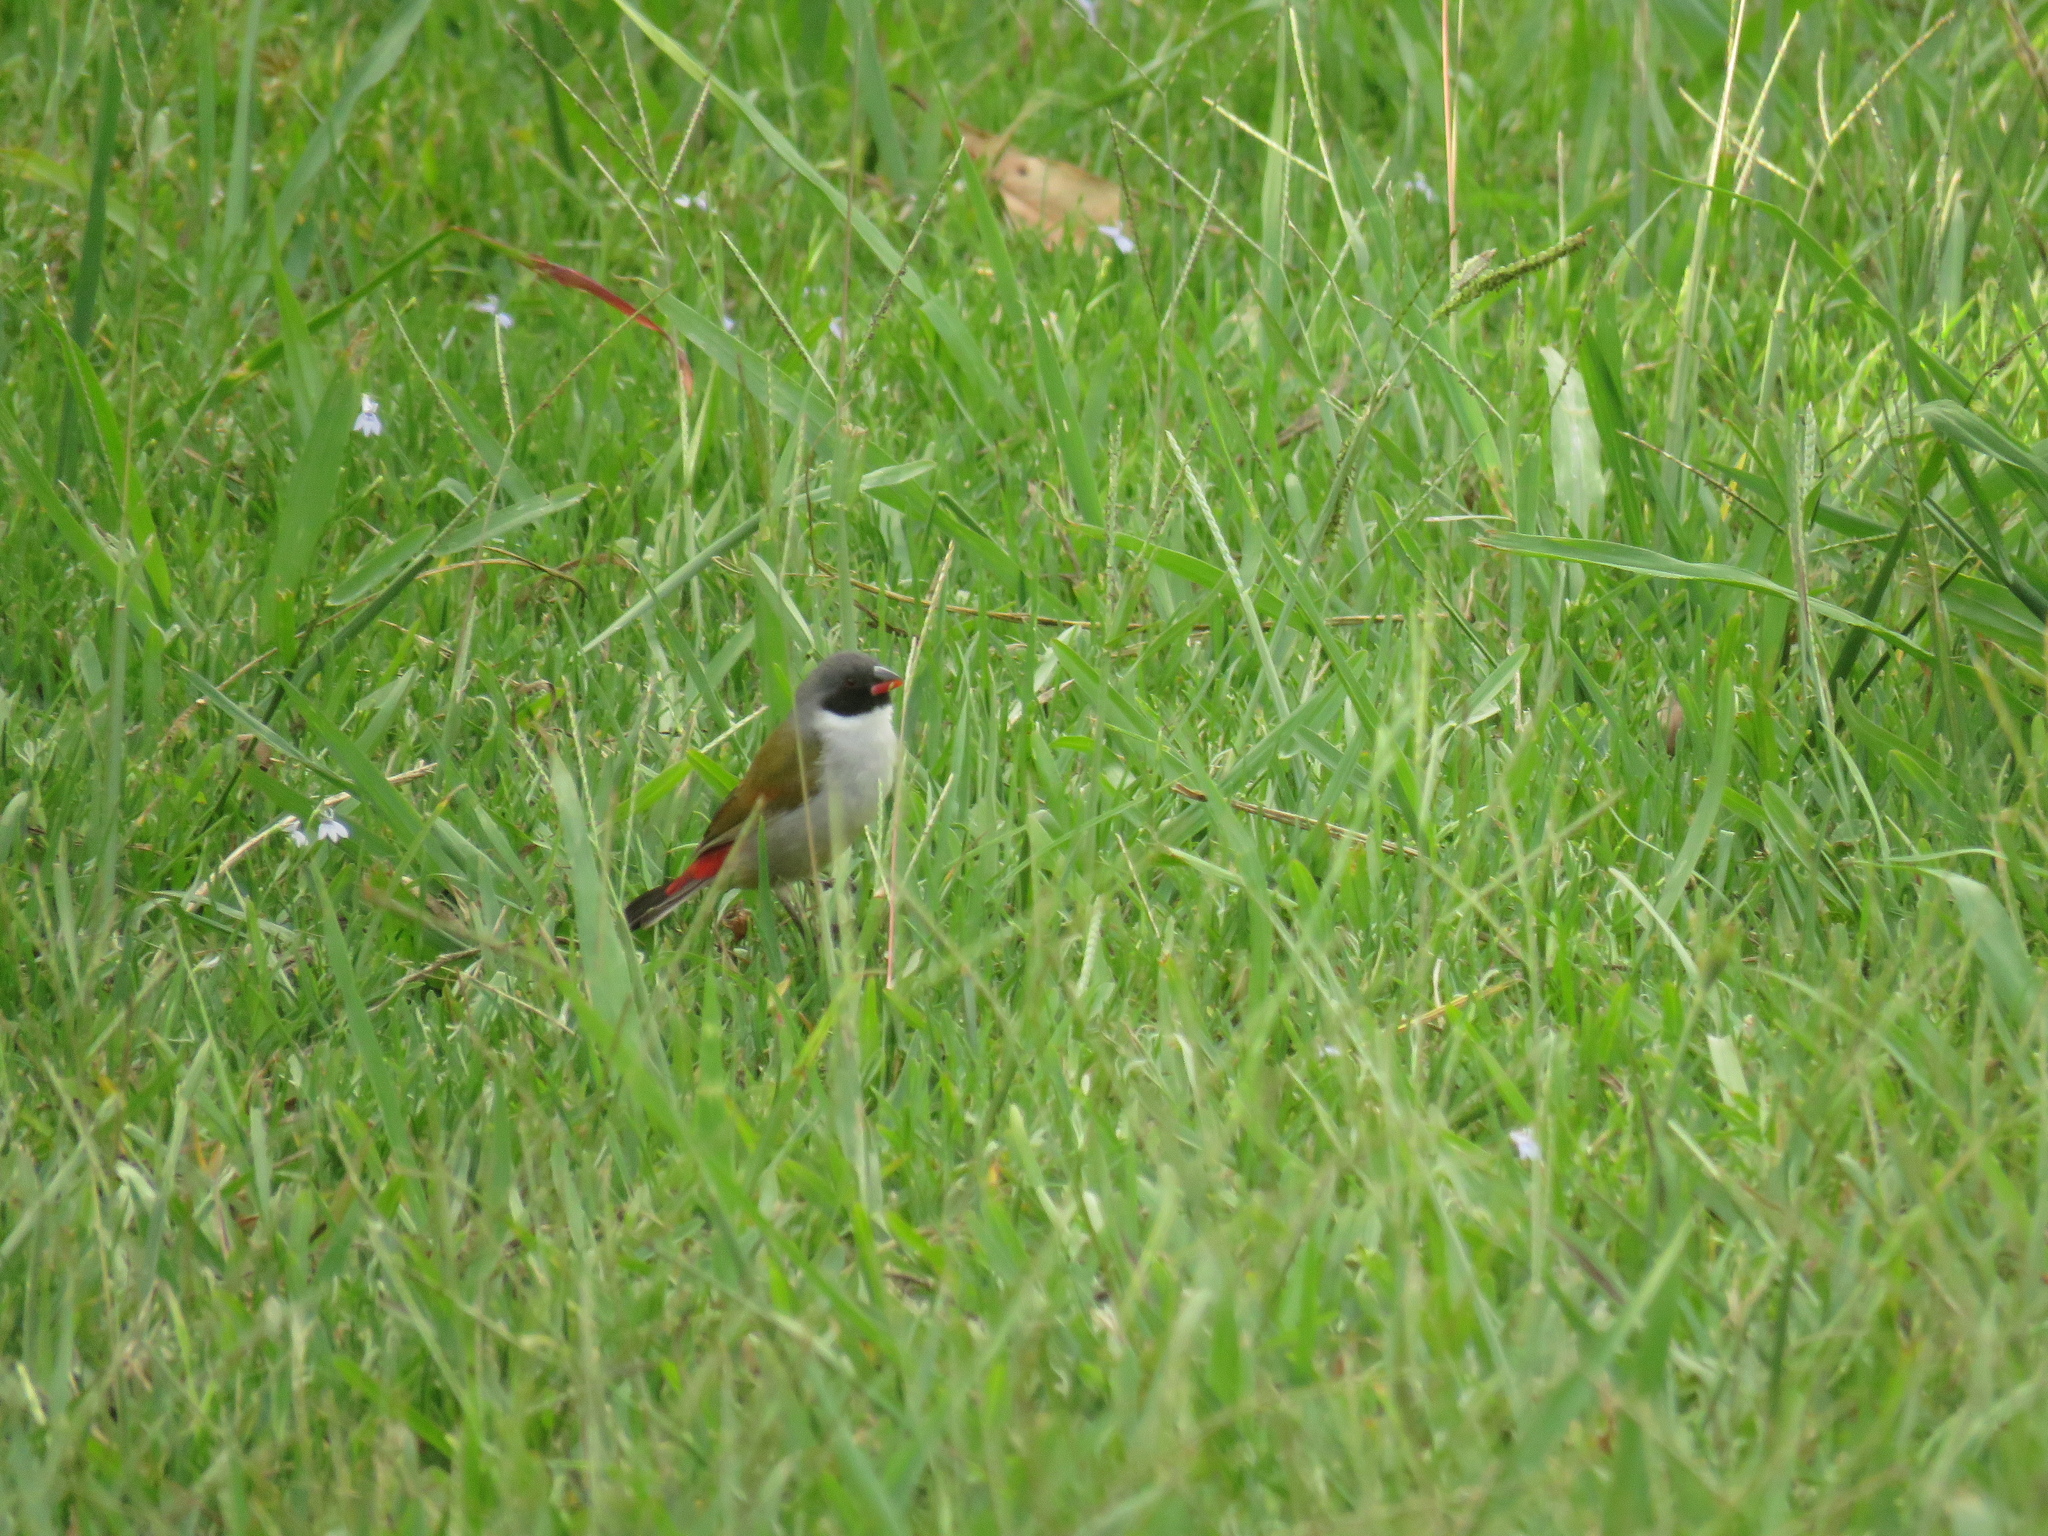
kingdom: Animalia
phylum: Chordata
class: Aves
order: Passeriformes
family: Estrildidae
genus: Coccopygia
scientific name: Coccopygia melanotis
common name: Swee waxbill
